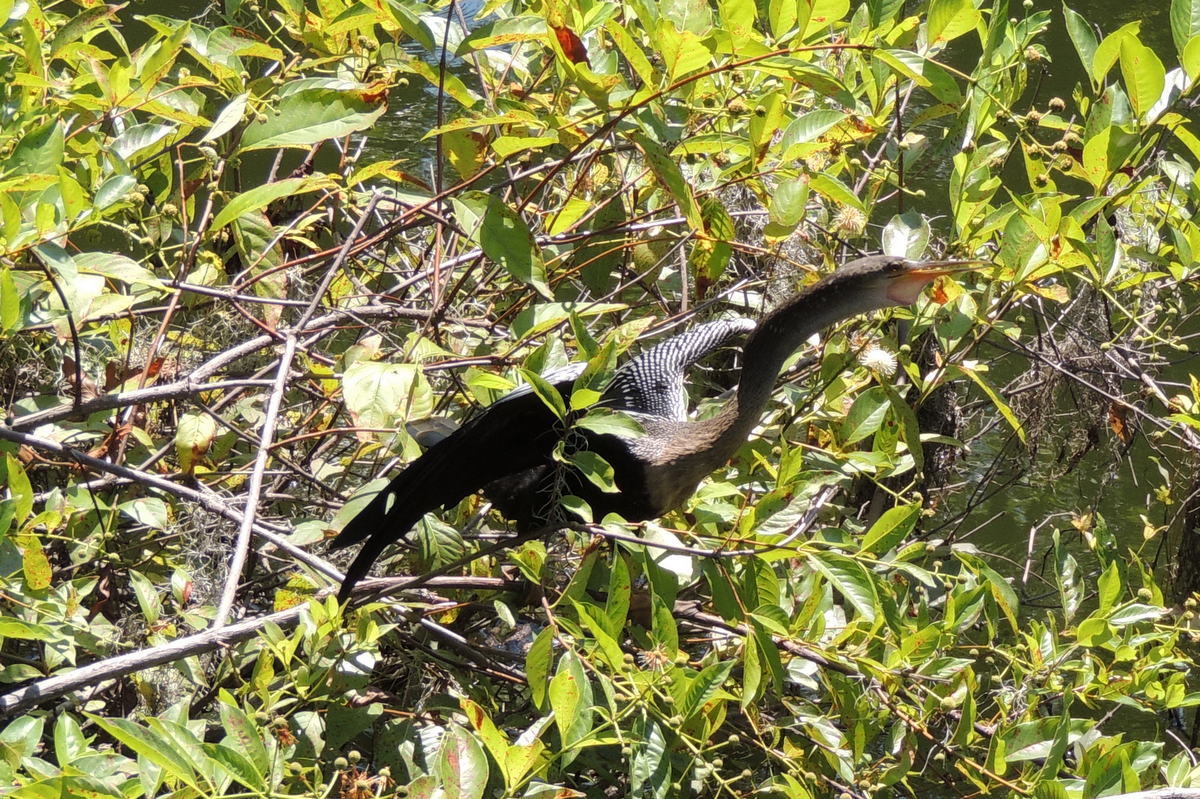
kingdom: Animalia
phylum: Chordata
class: Aves
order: Suliformes
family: Anhingidae
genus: Anhinga
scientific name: Anhinga anhinga
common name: Anhinga
